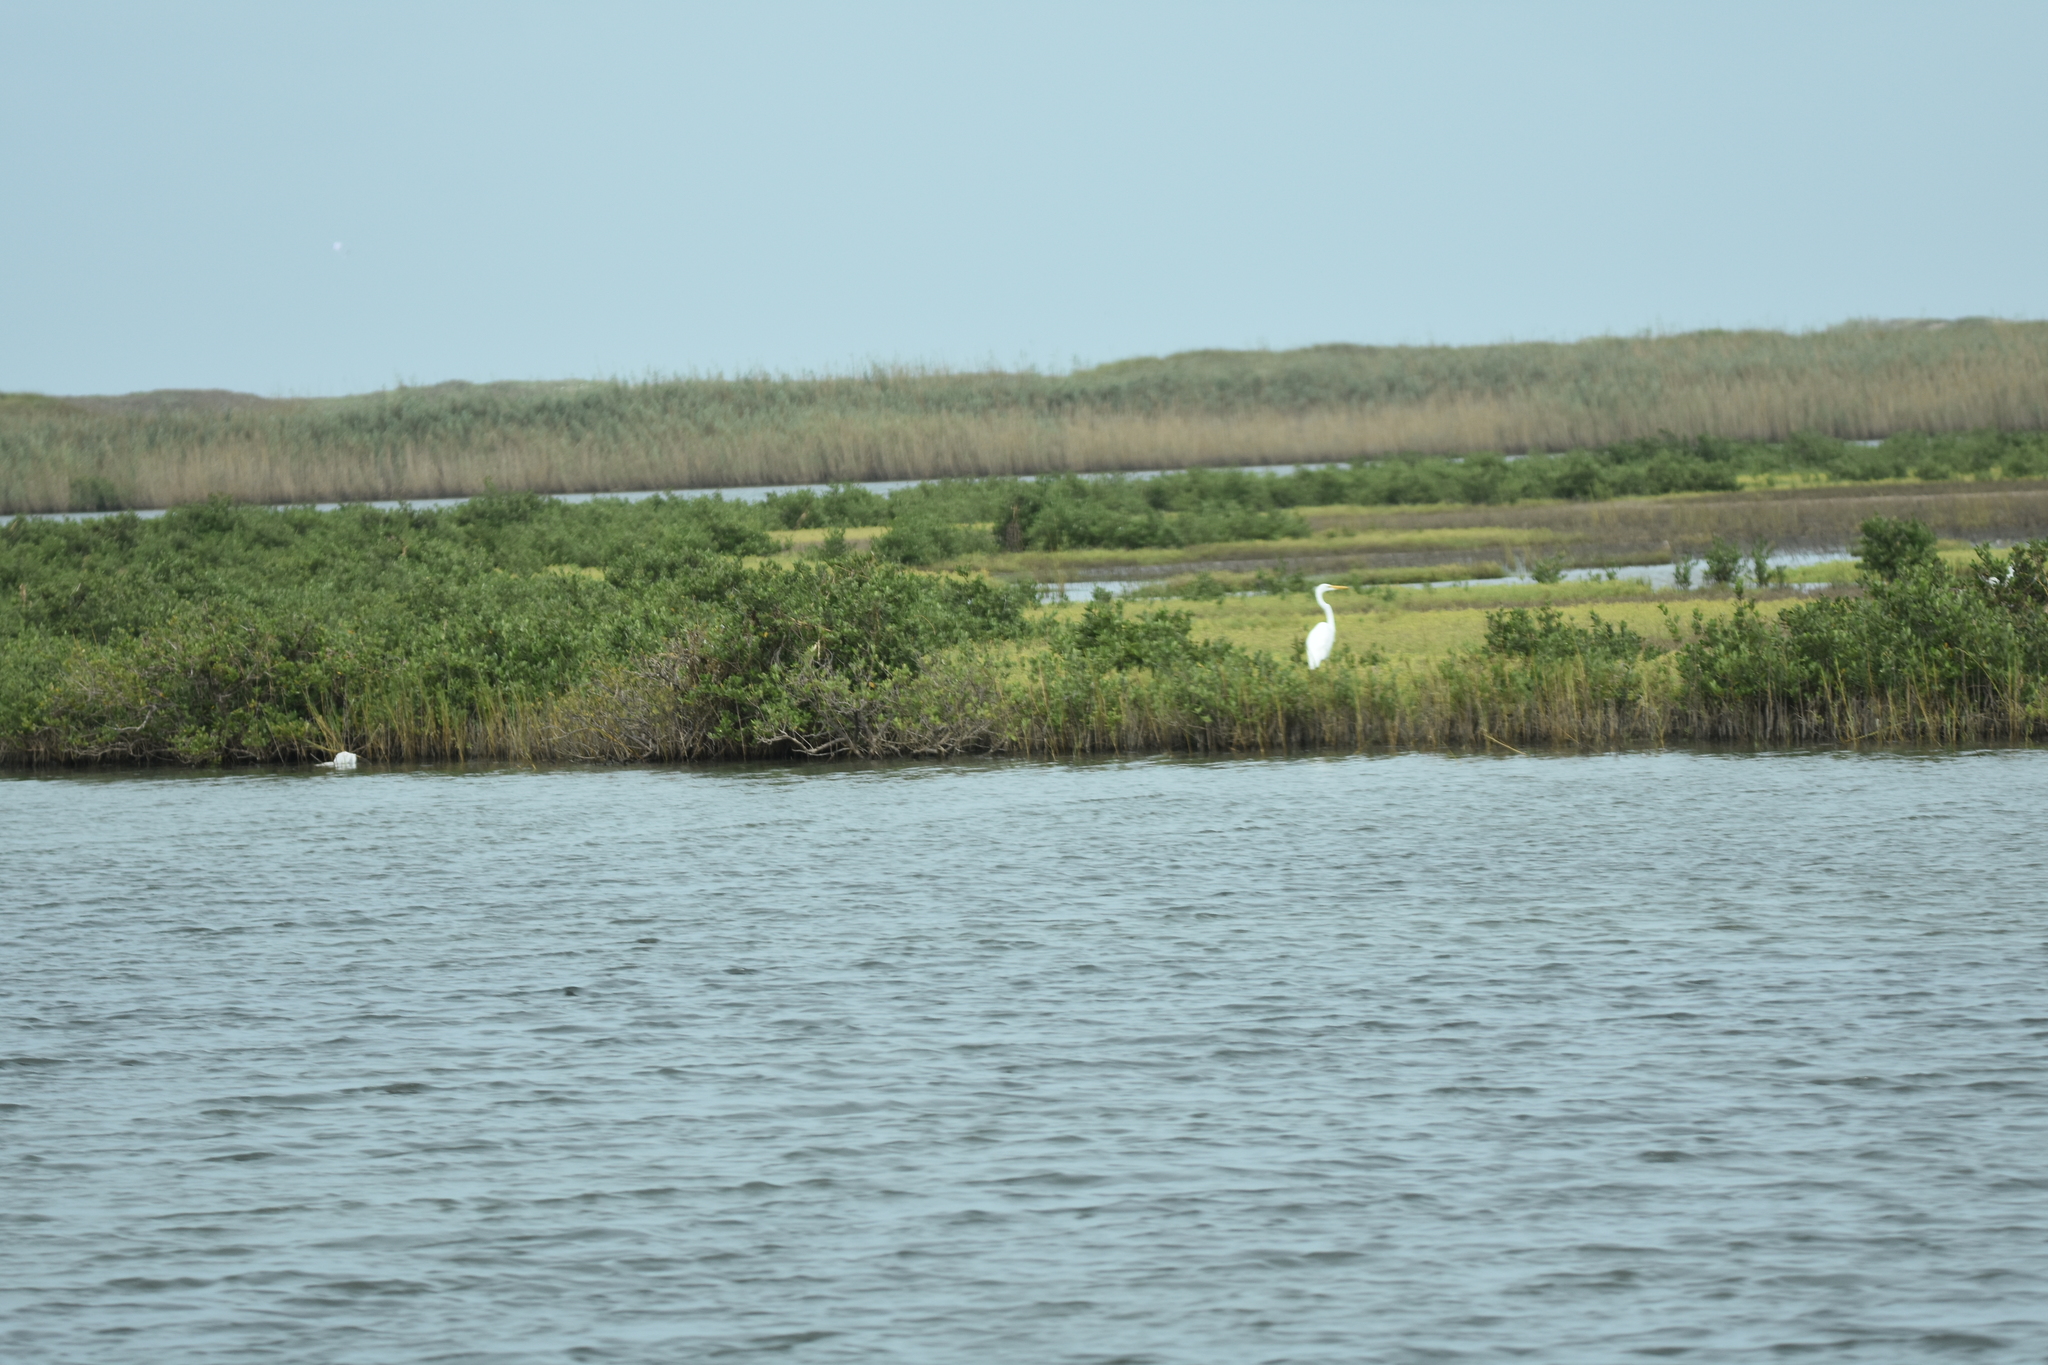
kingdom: Animalia
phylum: Chordata
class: Aves
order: Pelecaniformes
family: Ardeidae
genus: Ardea
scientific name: Ardea alba
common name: Great egret
